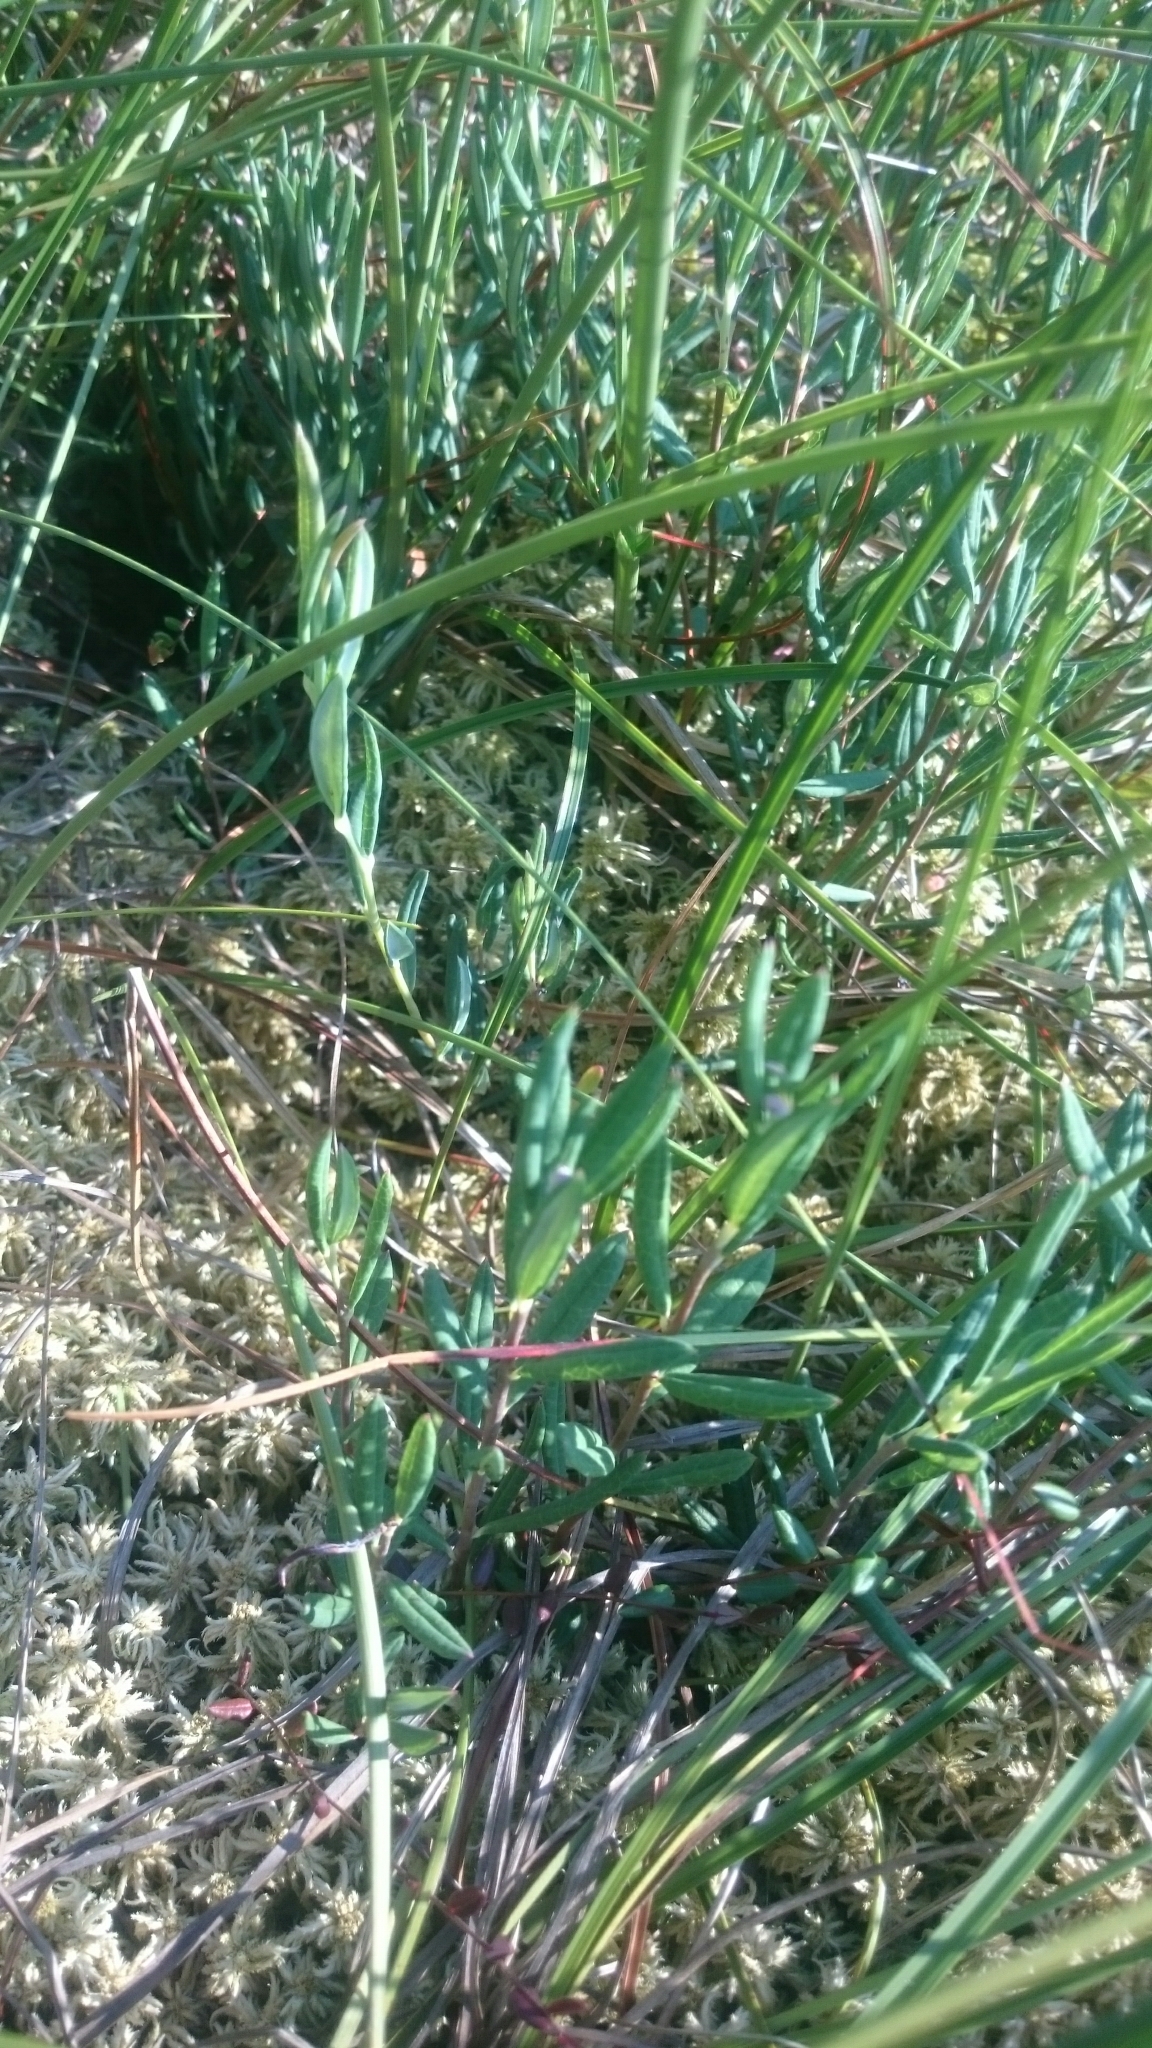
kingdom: Plantae
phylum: Tracheophyta
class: Magnoliopsida
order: Ericales
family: Ericaceae
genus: Andromeda
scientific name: Andromeda polifolia
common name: Bog-rosemary
